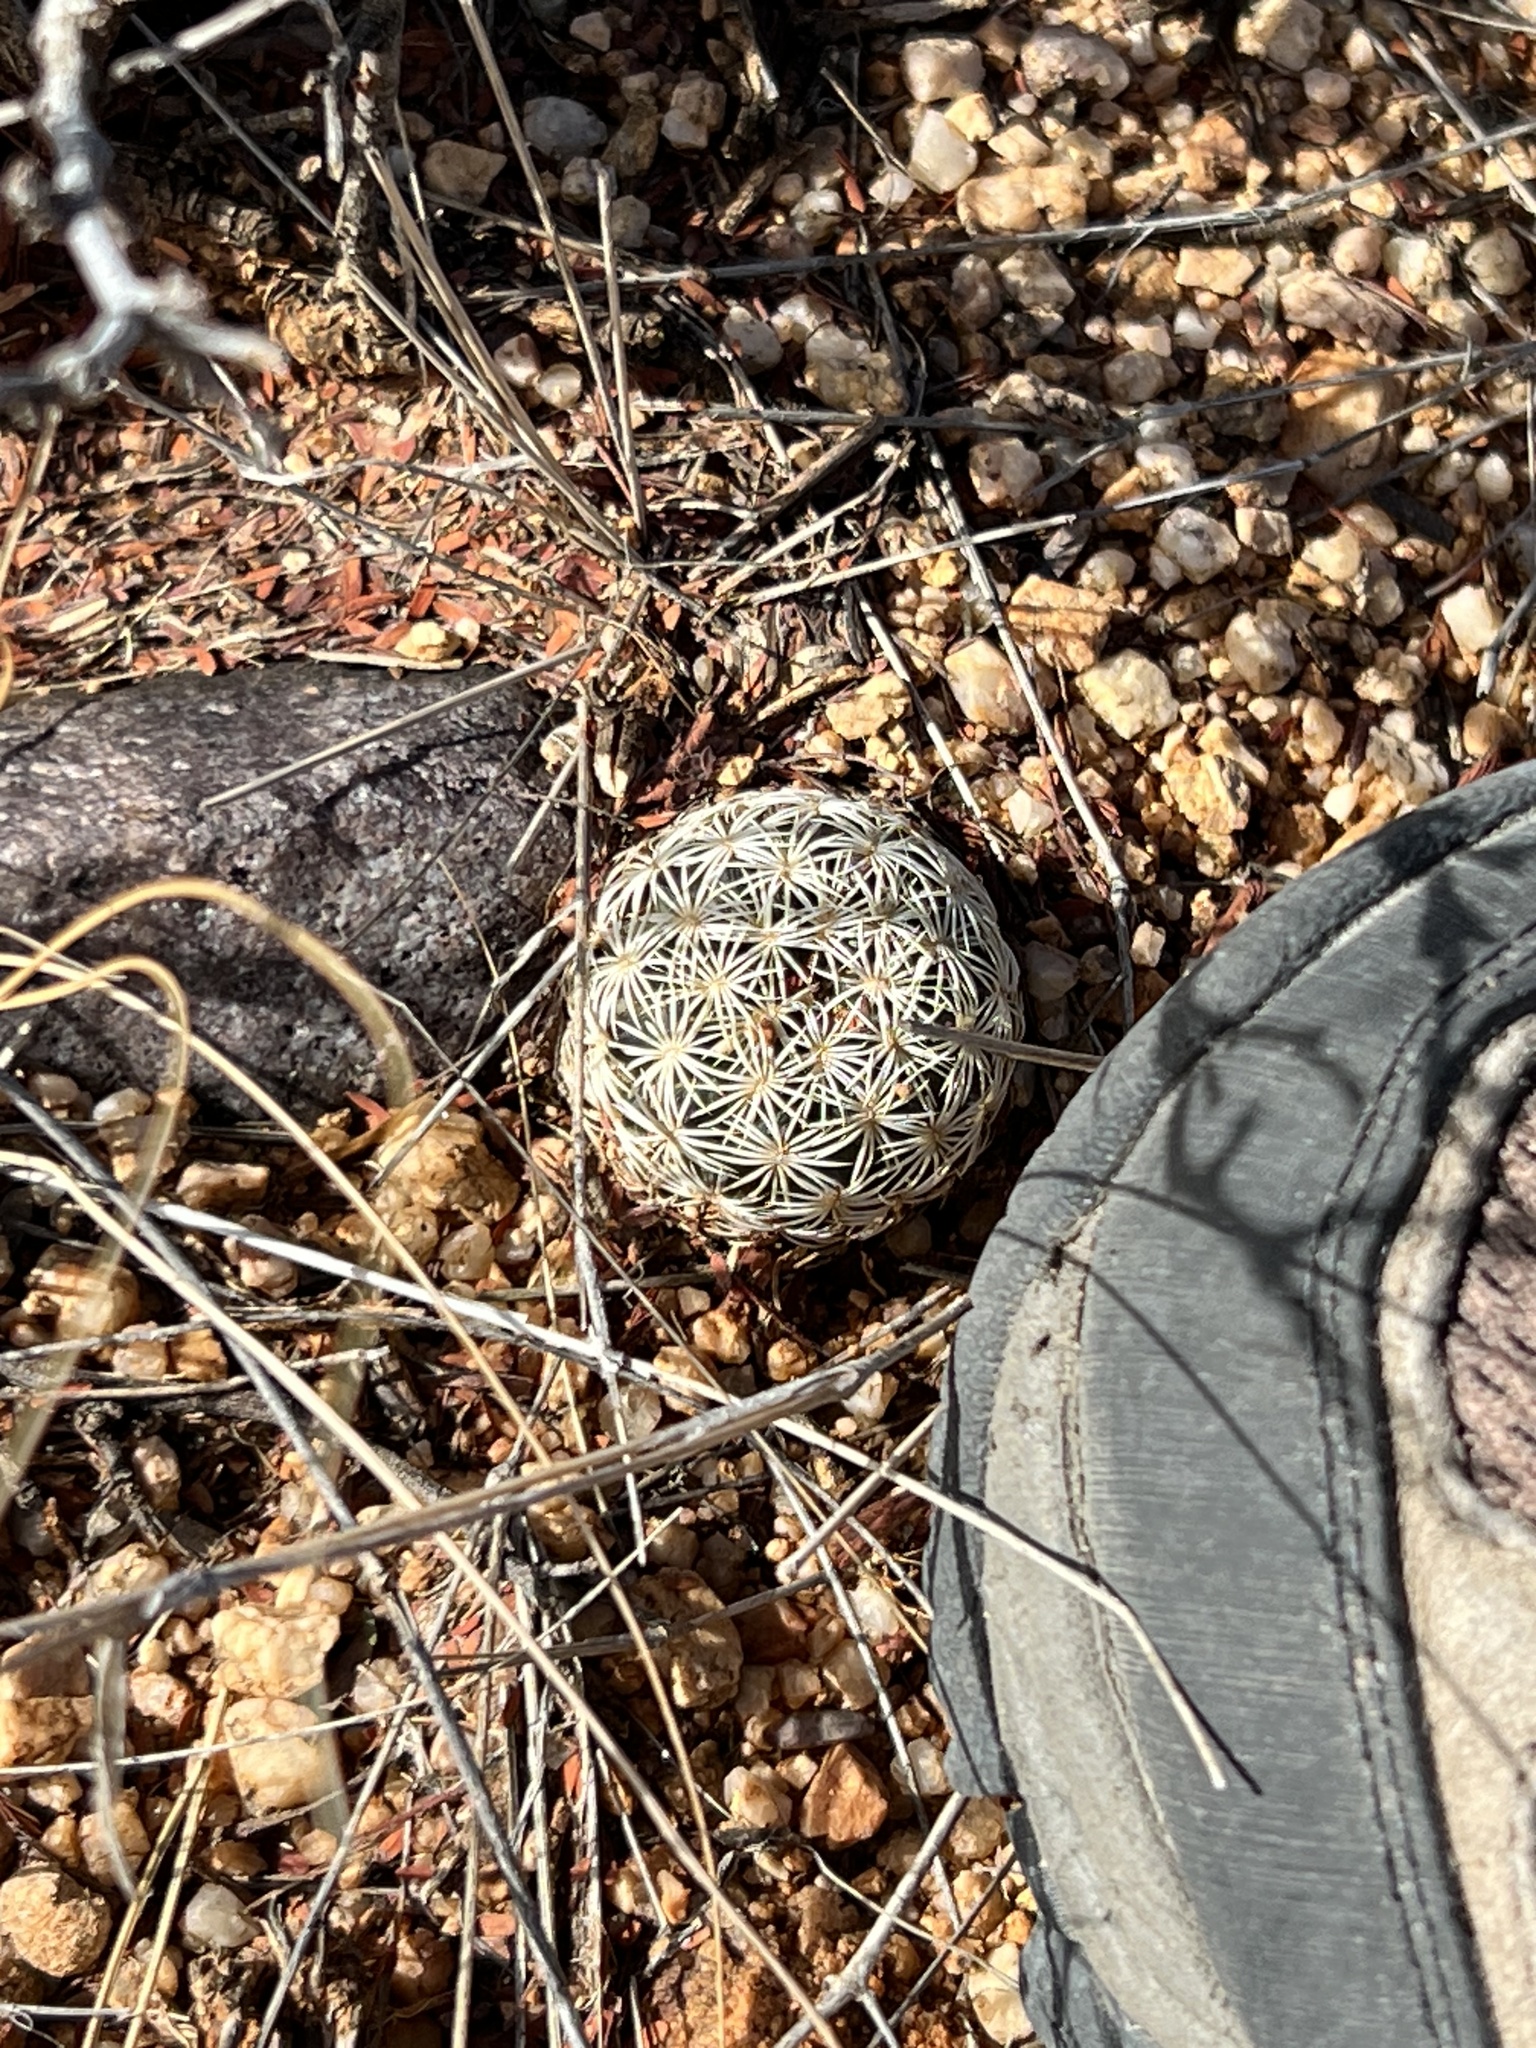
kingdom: Plantae
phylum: Tracheophyta
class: Magnoliopsida
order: Caryophyllales
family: Cactaceae
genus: Sclerocactus
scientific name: Sclerocactus johnsonii
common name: Eight-spine fishhook cactus
